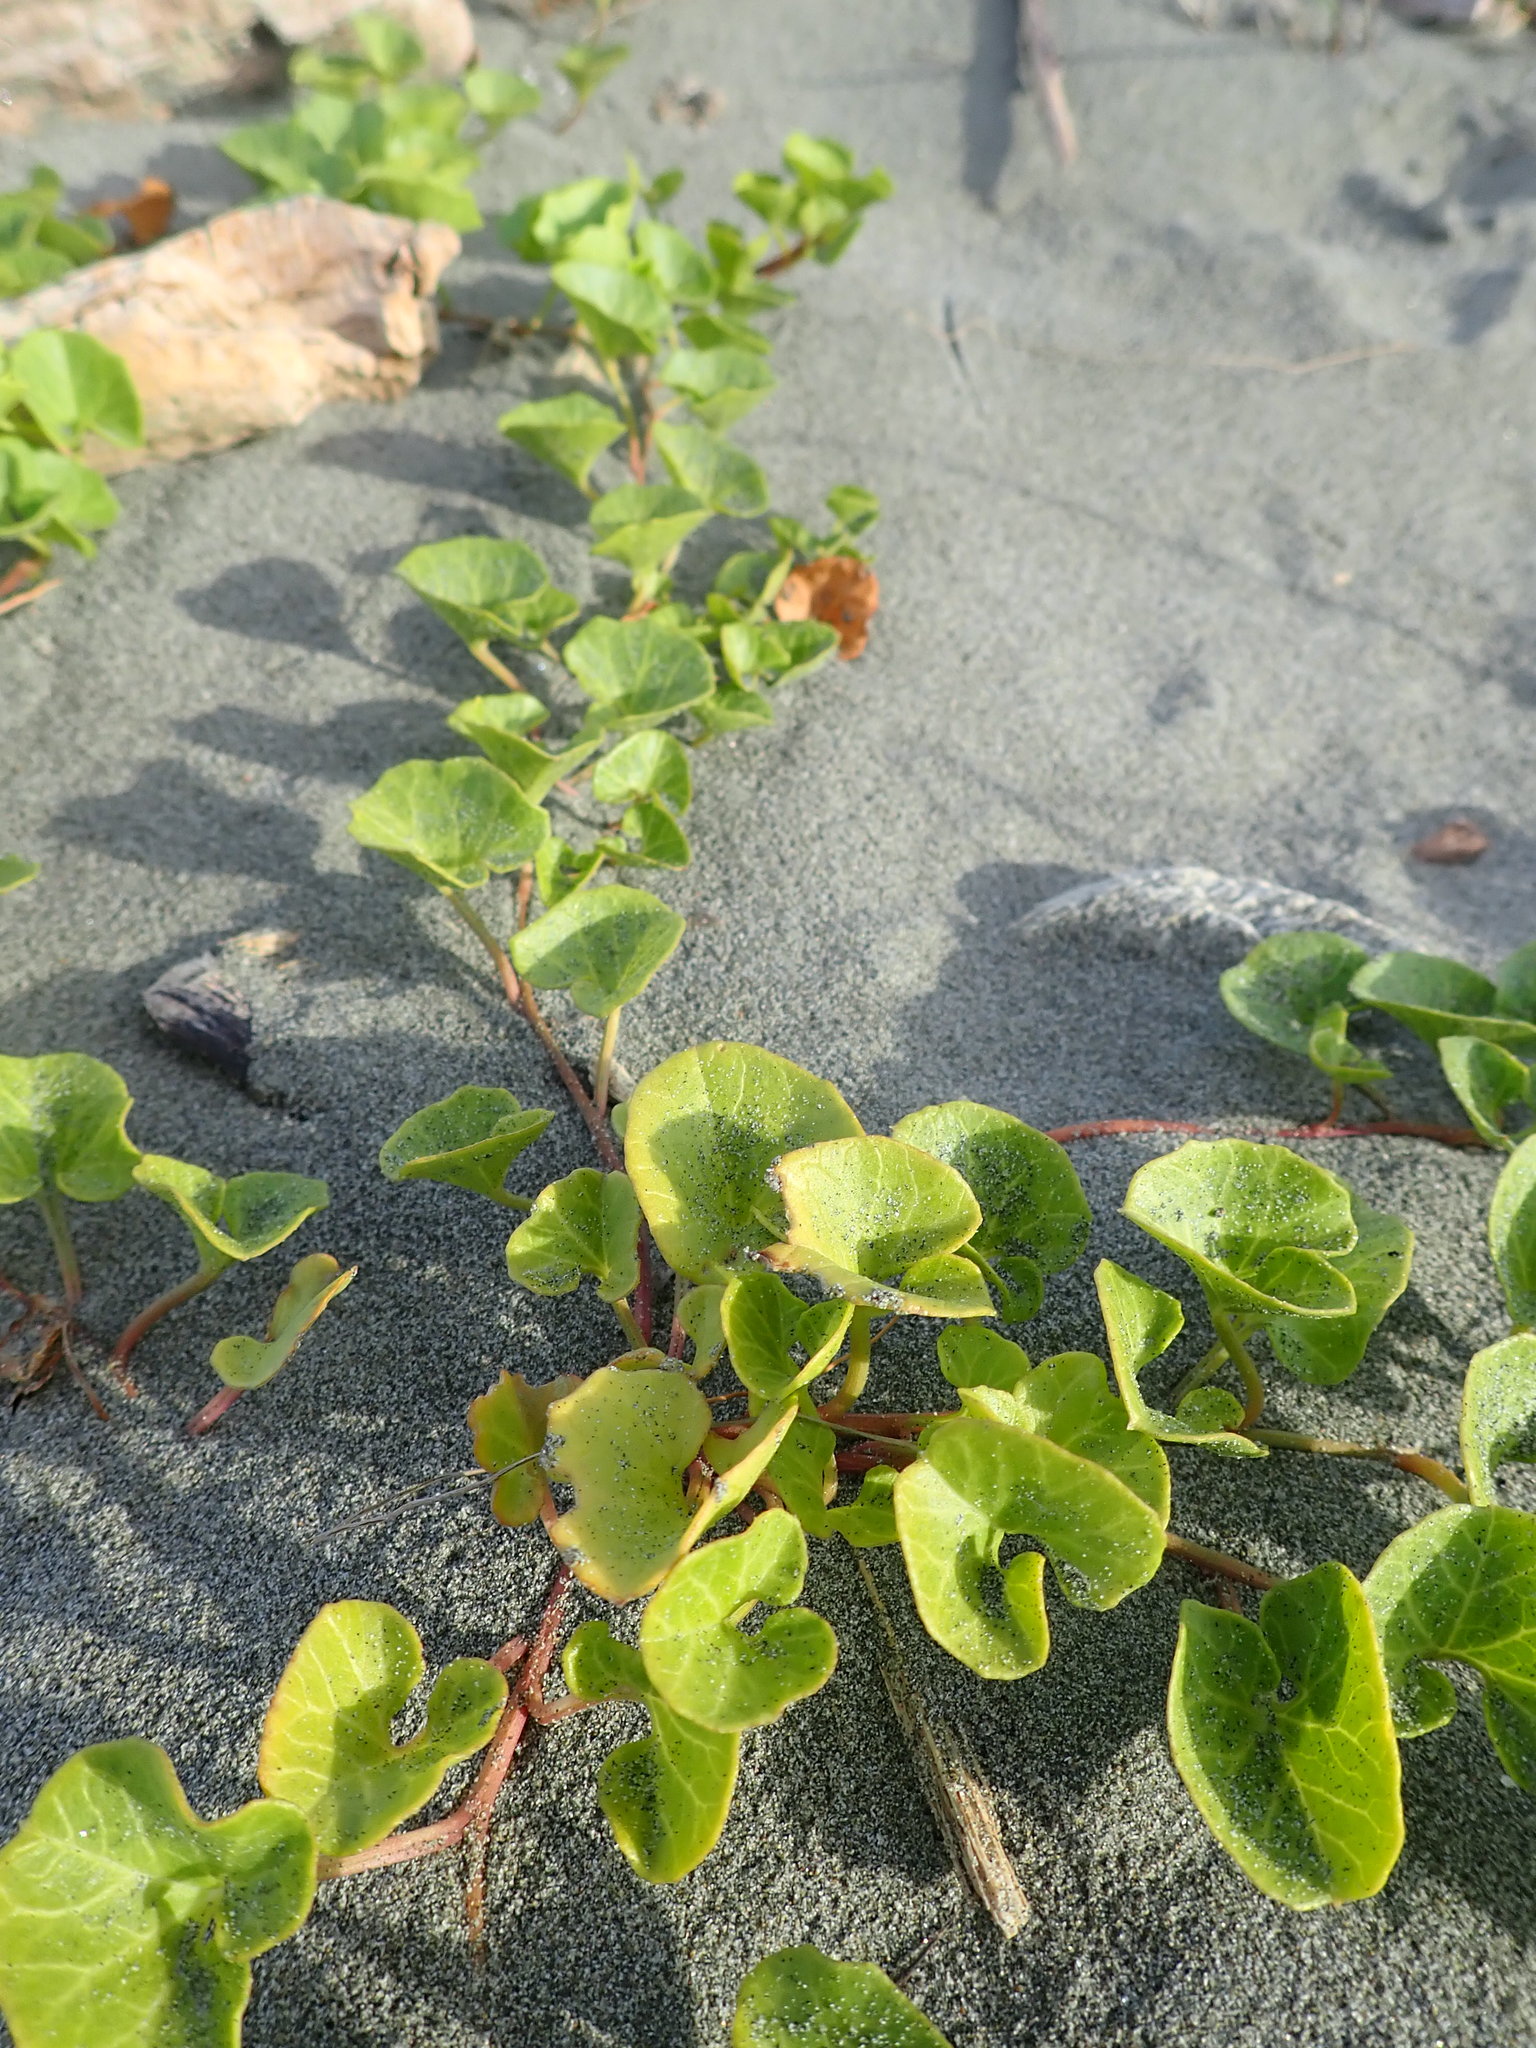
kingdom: Plantae
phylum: Tracheophyta
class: Magnoliopsida
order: Solanales
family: Convolvulaceae
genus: Calystegia
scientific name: Calystegia soldanella
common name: Sea bindweed
